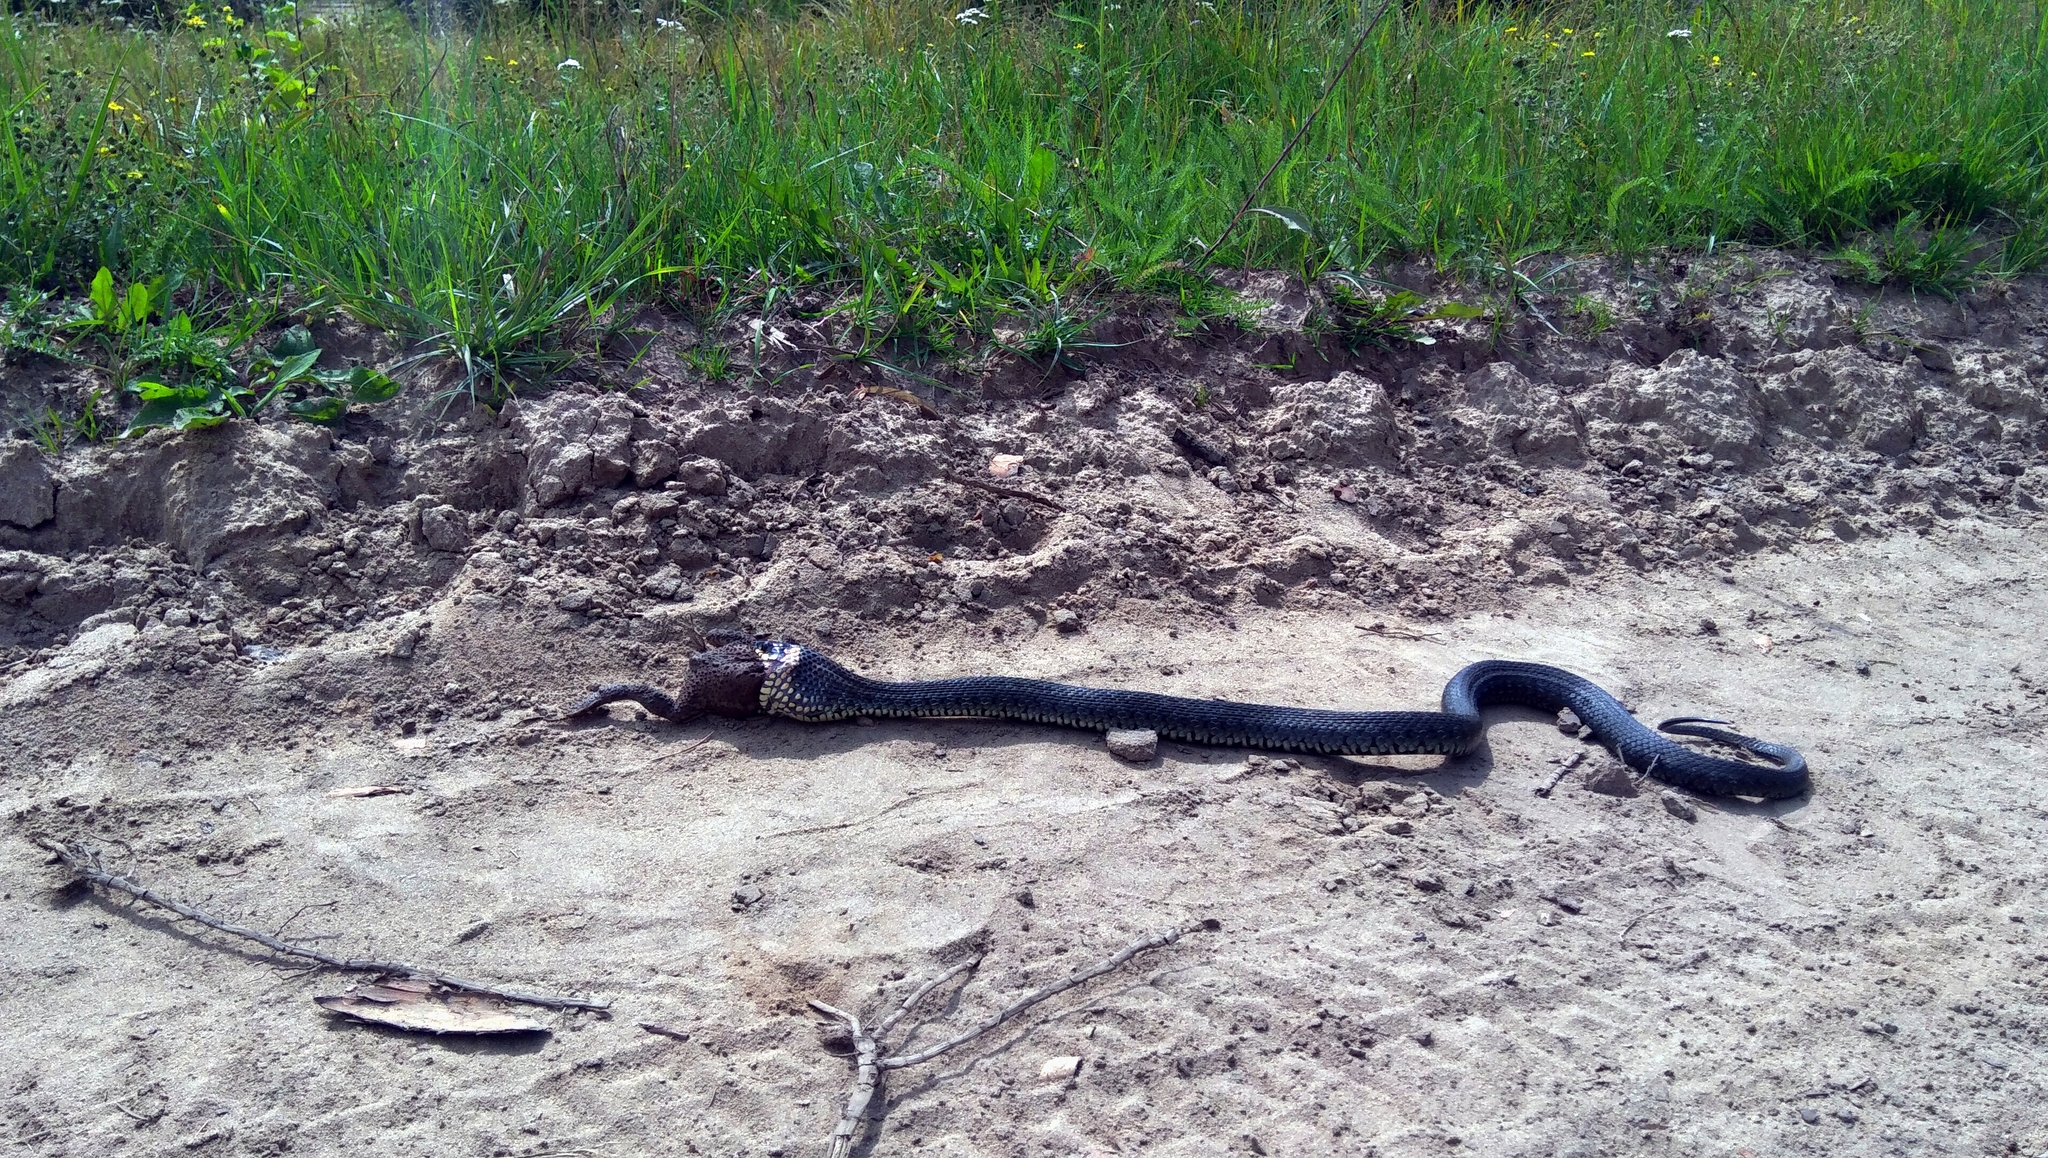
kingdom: Animalia
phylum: Chordata
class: Squamata
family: Colubridae
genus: Natrix
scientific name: Natrix natrix
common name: Grass snake
